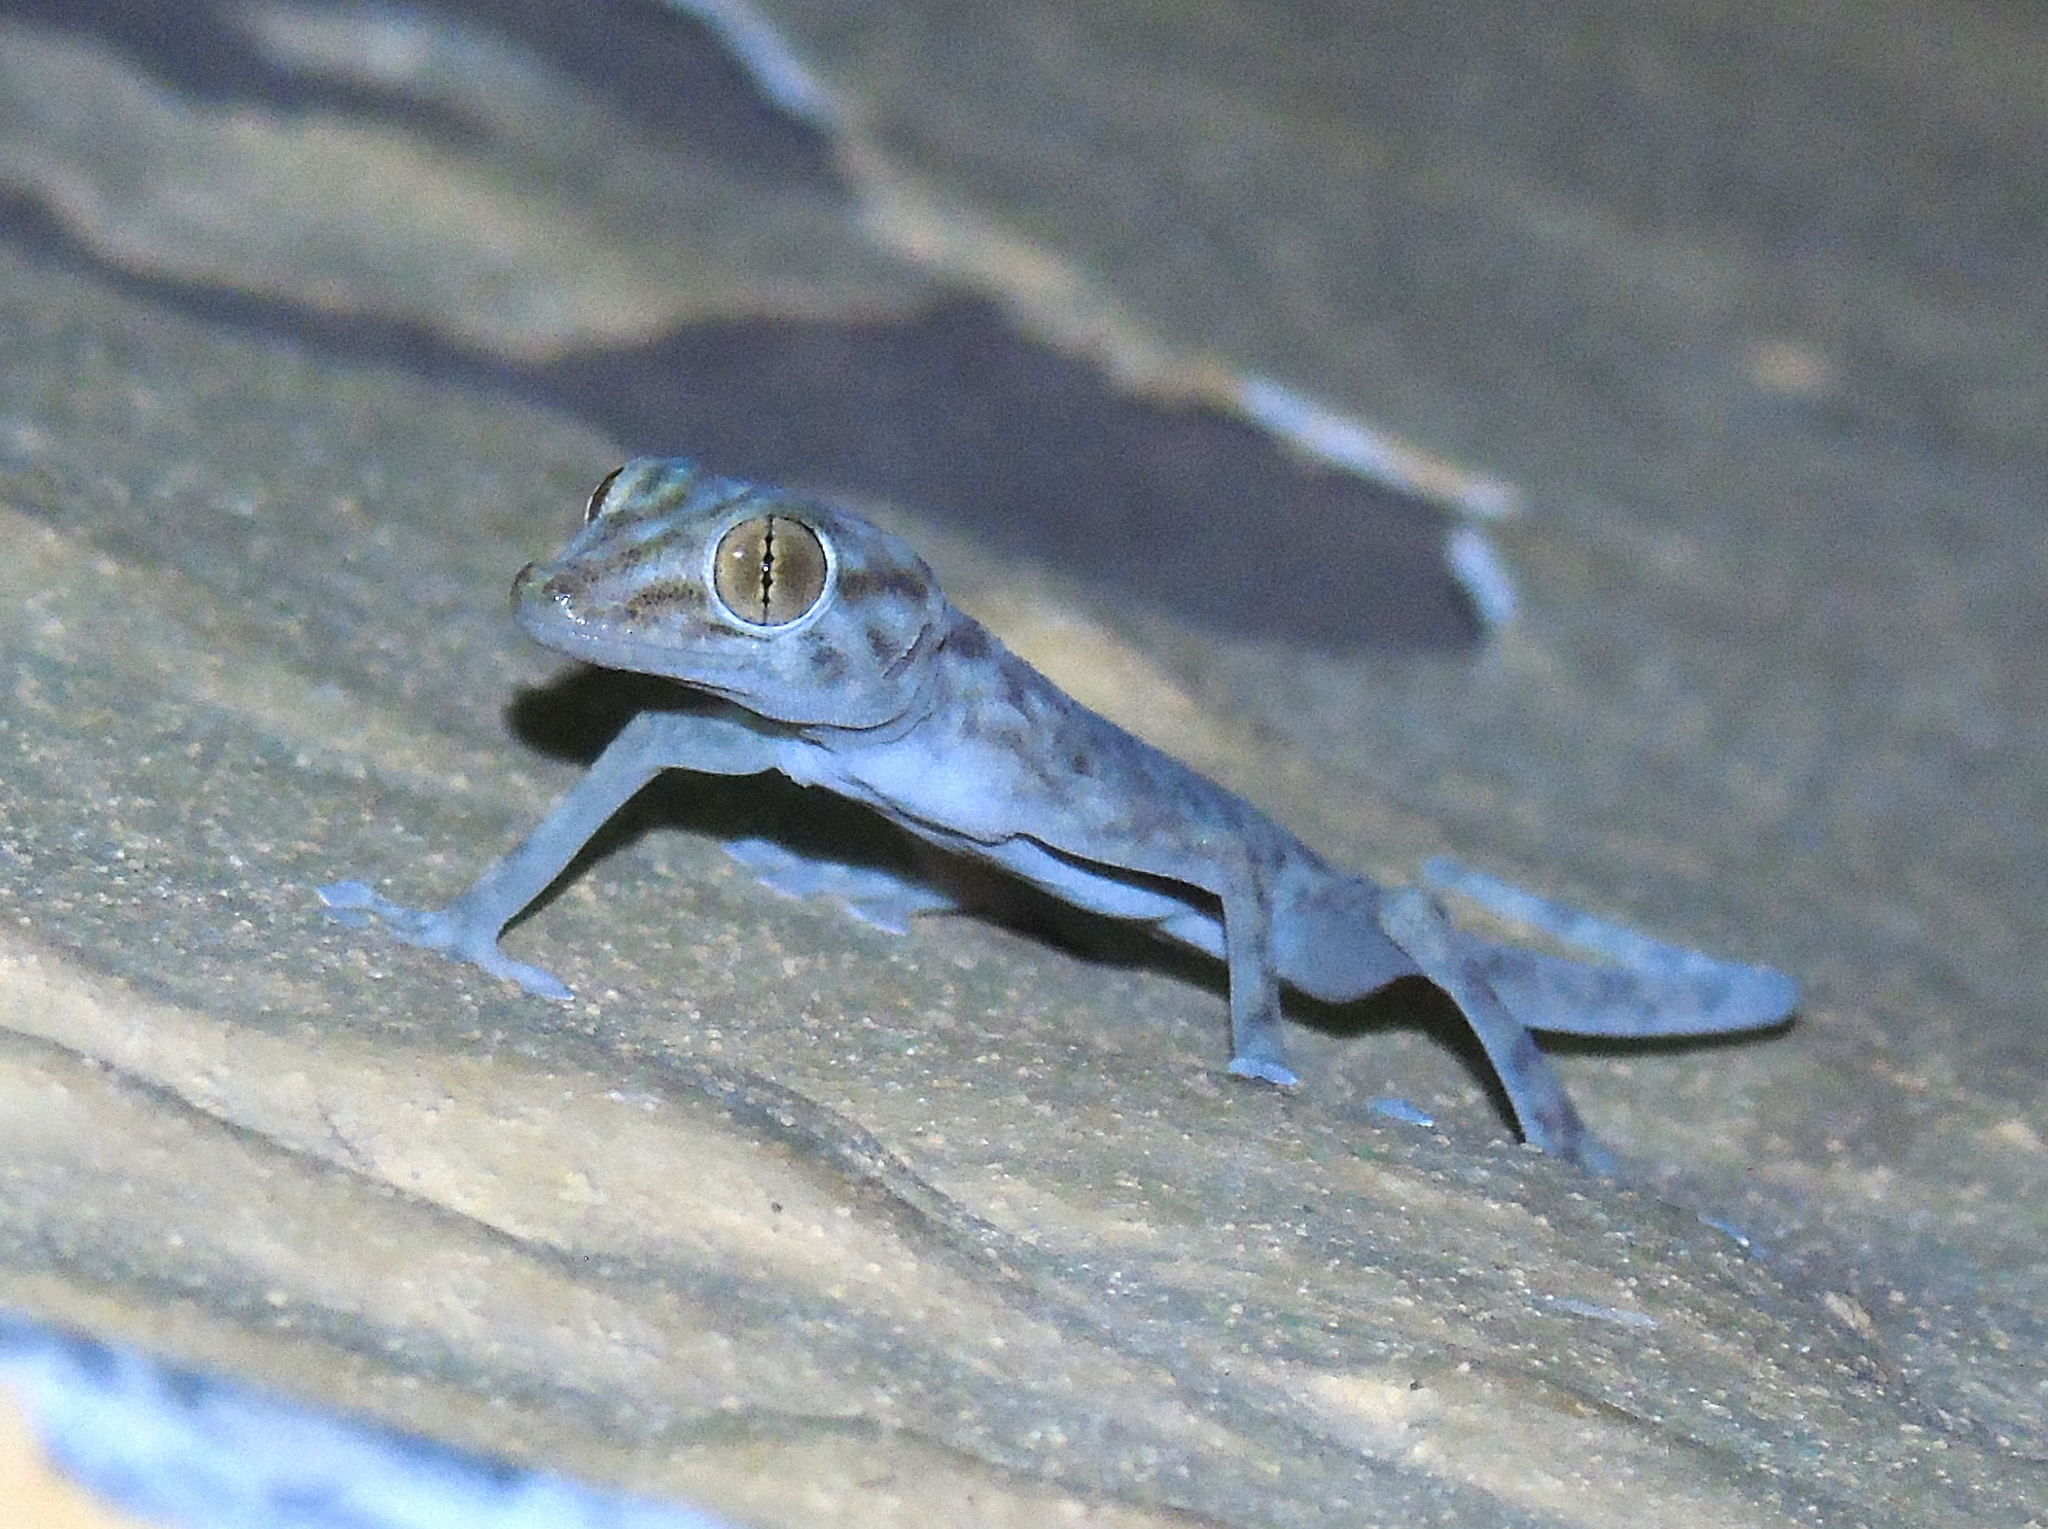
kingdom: Animalia
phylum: Chordata
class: Squamata
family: Phyllodactylidae
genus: Ptyodactylus
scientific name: Ptyodactylus hasselquistii
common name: Hasselquist’s fan-footed gecko
